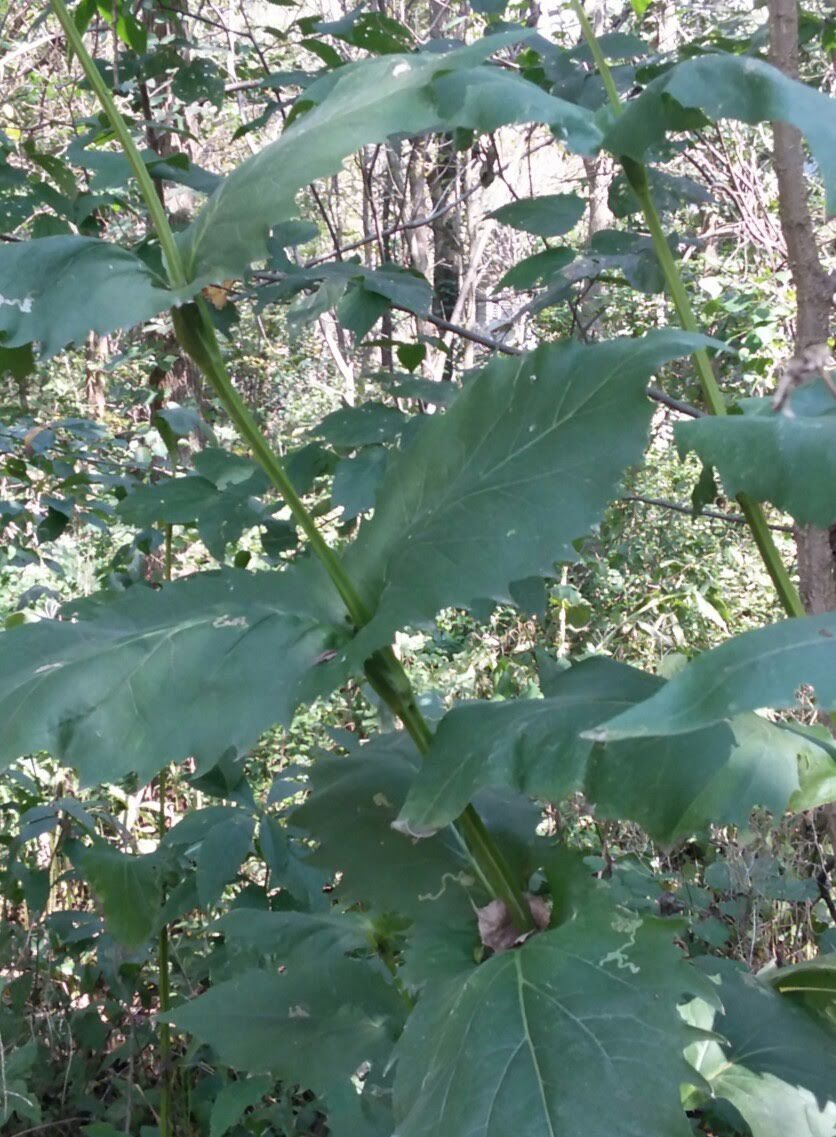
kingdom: Plantae
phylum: Tracheophyta
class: Magnoliopsida
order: Asterales
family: Asteraceae
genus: Silphium
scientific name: Silphium perfoliatum
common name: Cup-plant
